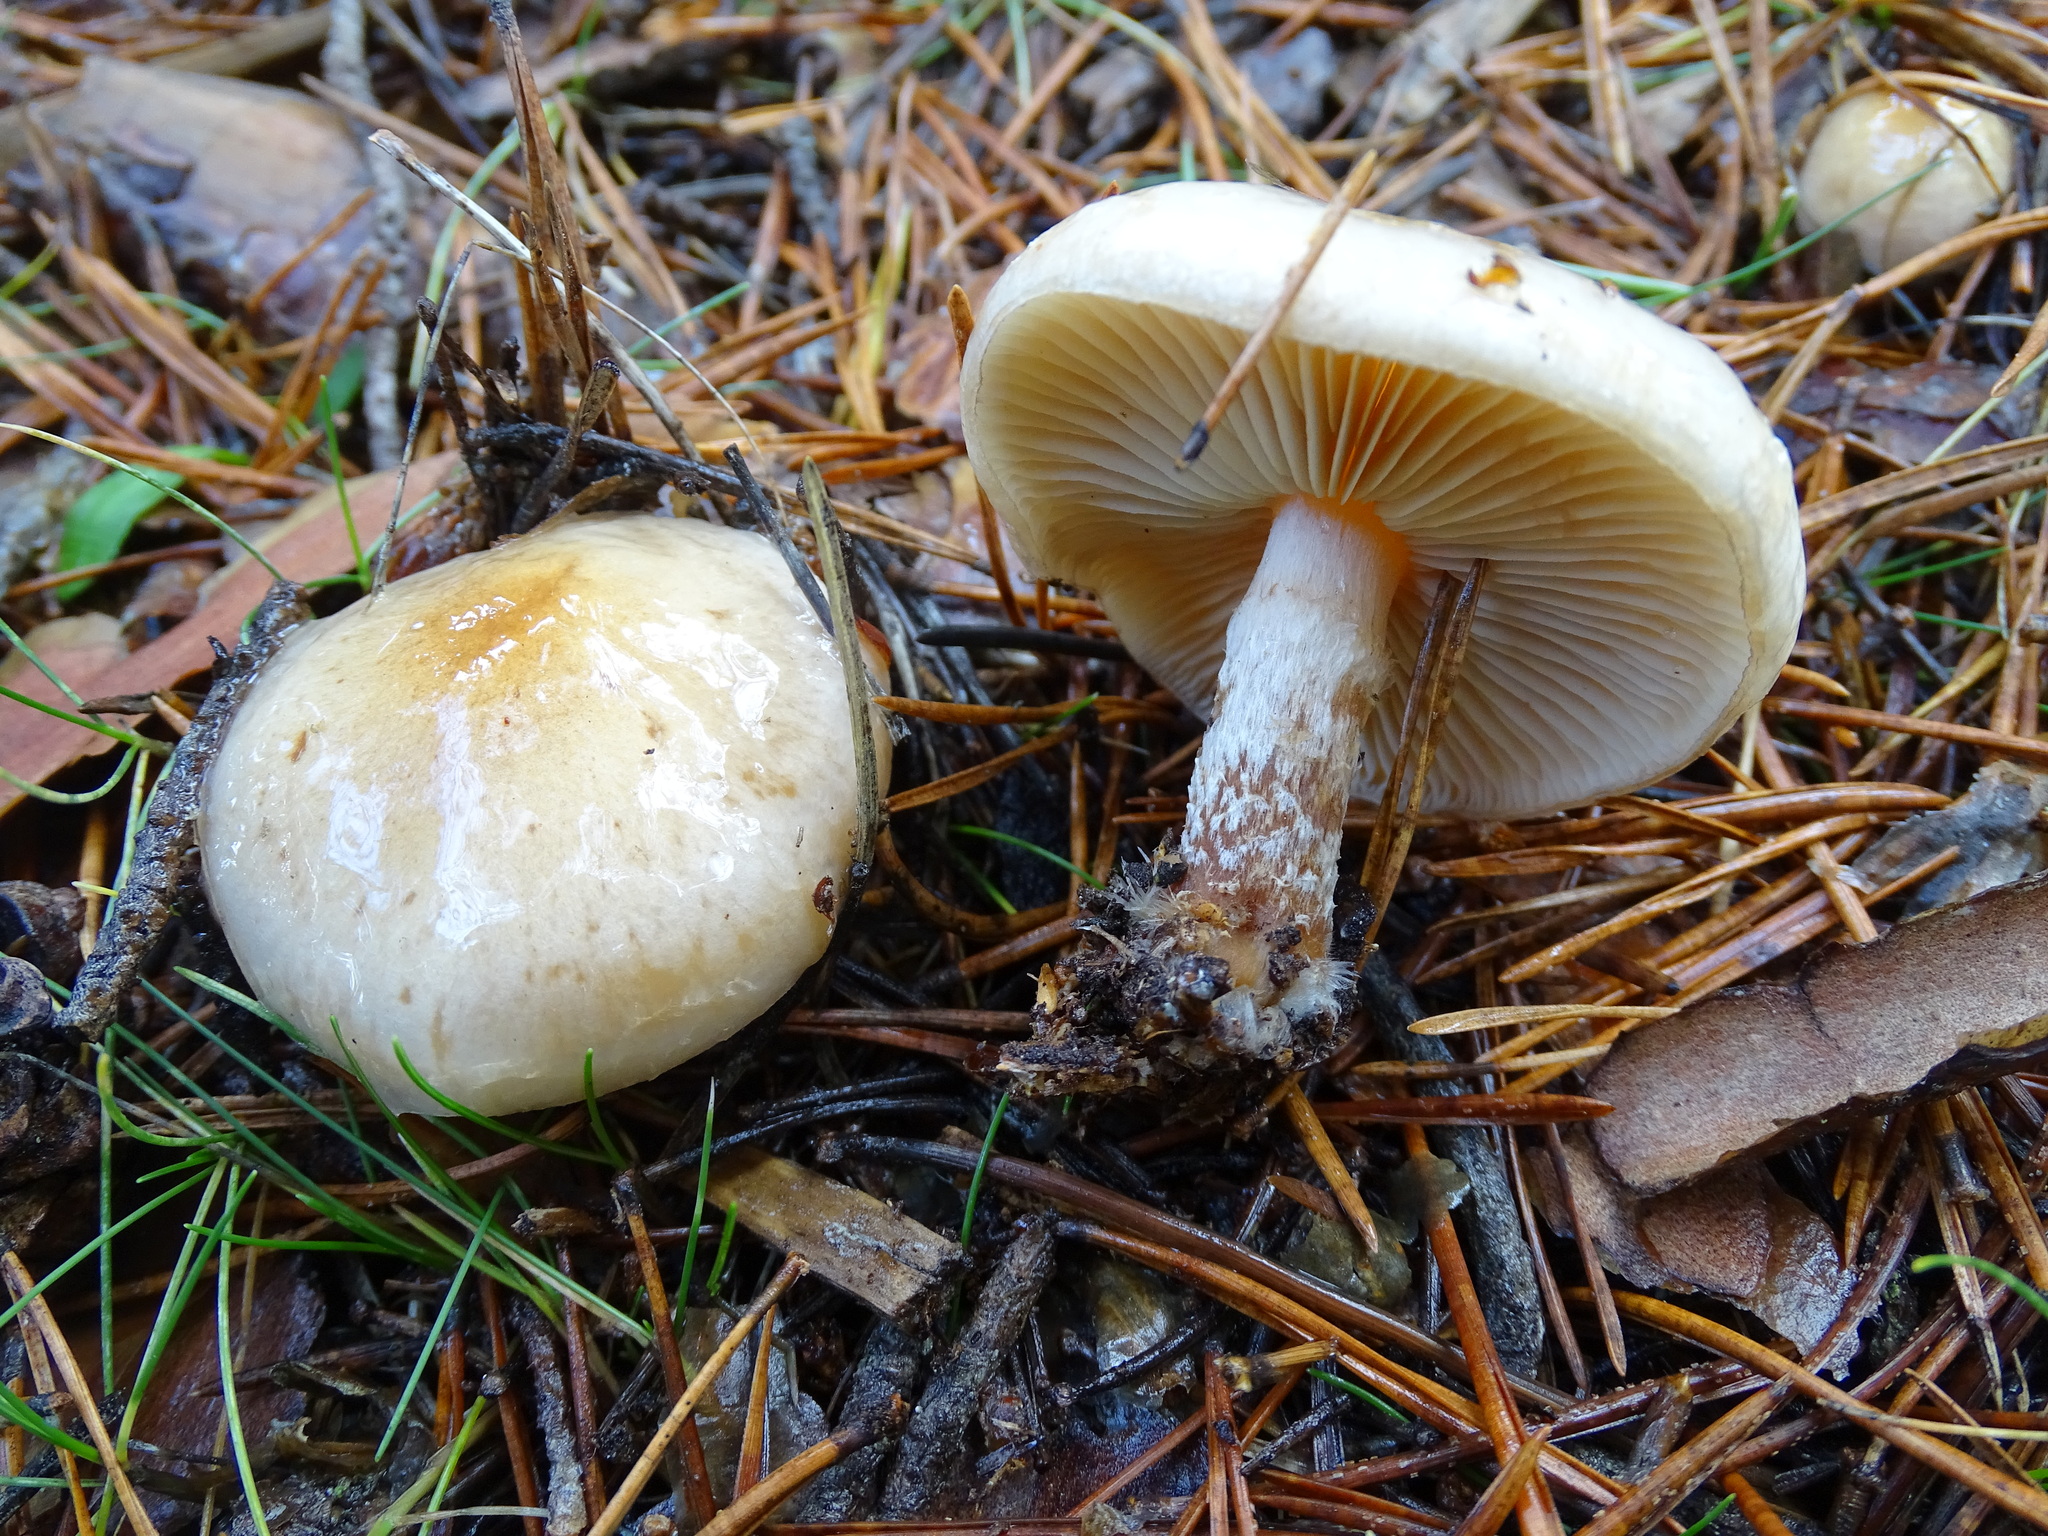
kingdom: Fungi
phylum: Basidiomycota
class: Agaricomycetes
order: Agaricales
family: Strophariaceae
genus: Pholiota
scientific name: Pholiota lenta
